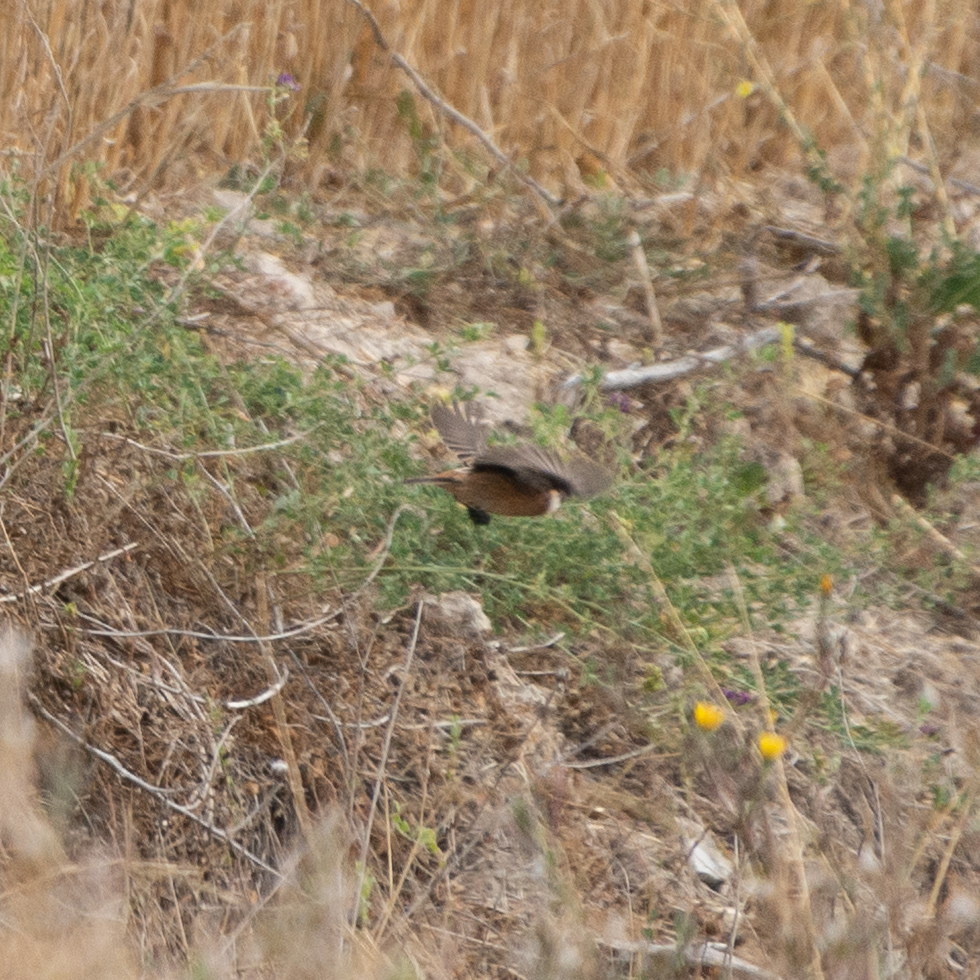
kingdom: Animalia
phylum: Chordata
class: Aves
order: Passeriformes
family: Muscicapidae
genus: Saxicola
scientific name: Saxicola rubicola
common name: European stonechat
